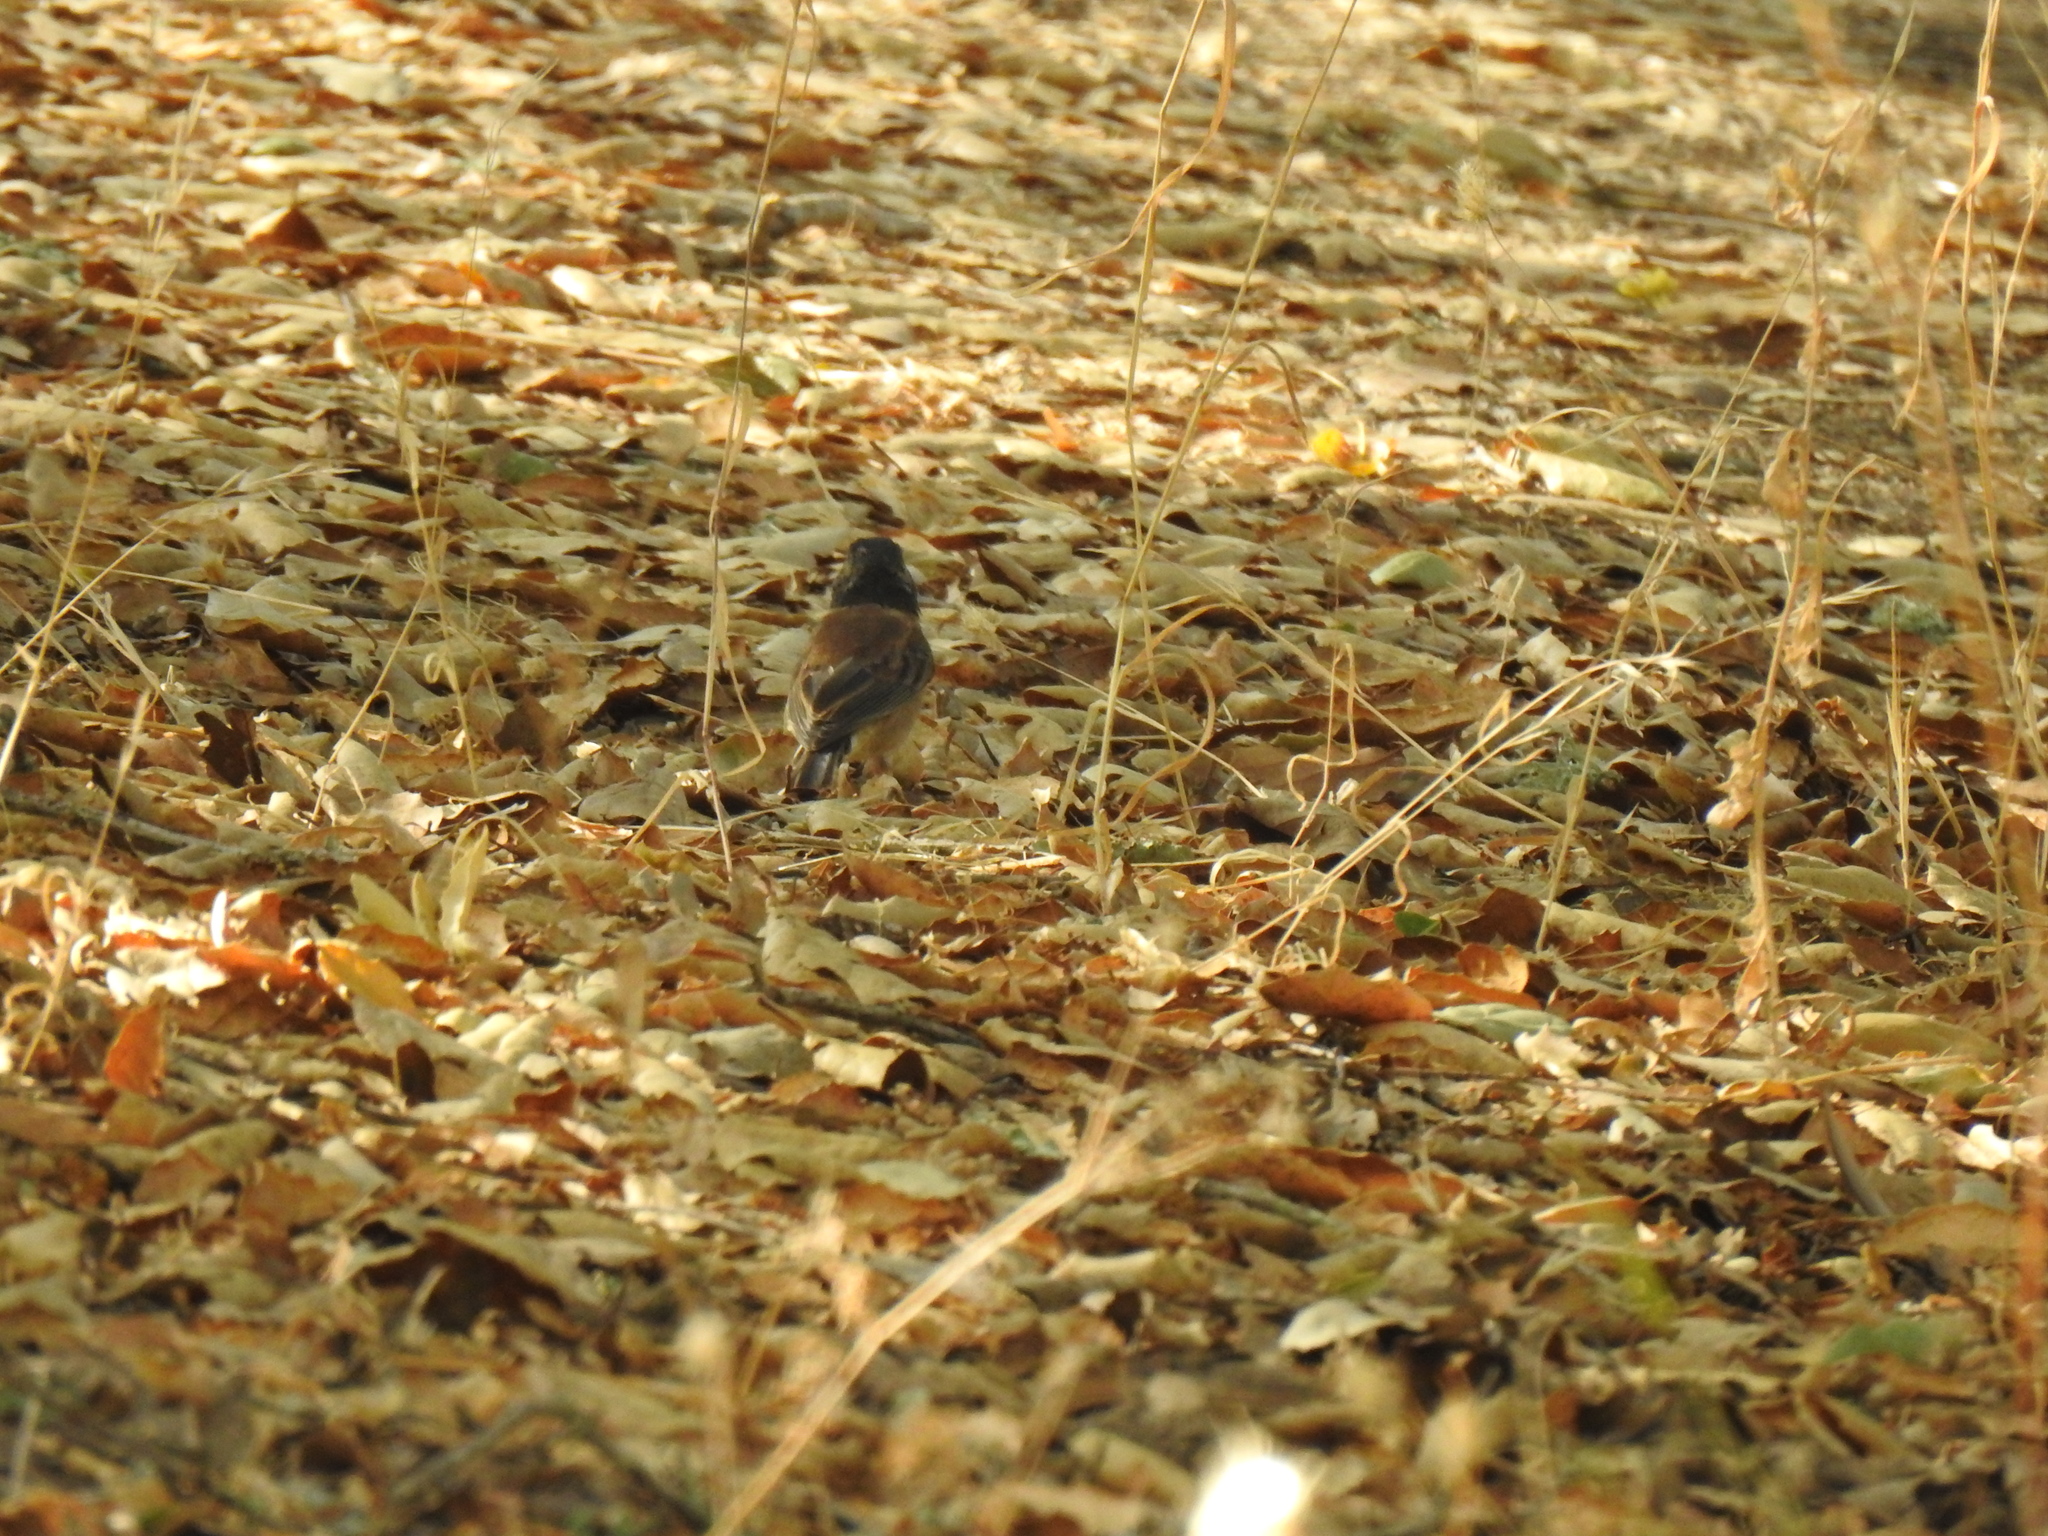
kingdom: Animalia
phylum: Chordata
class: Aves
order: Passeriformes
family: Passerellidae
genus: Junco
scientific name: Junco hyemalis
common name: Dark-eyed junco
